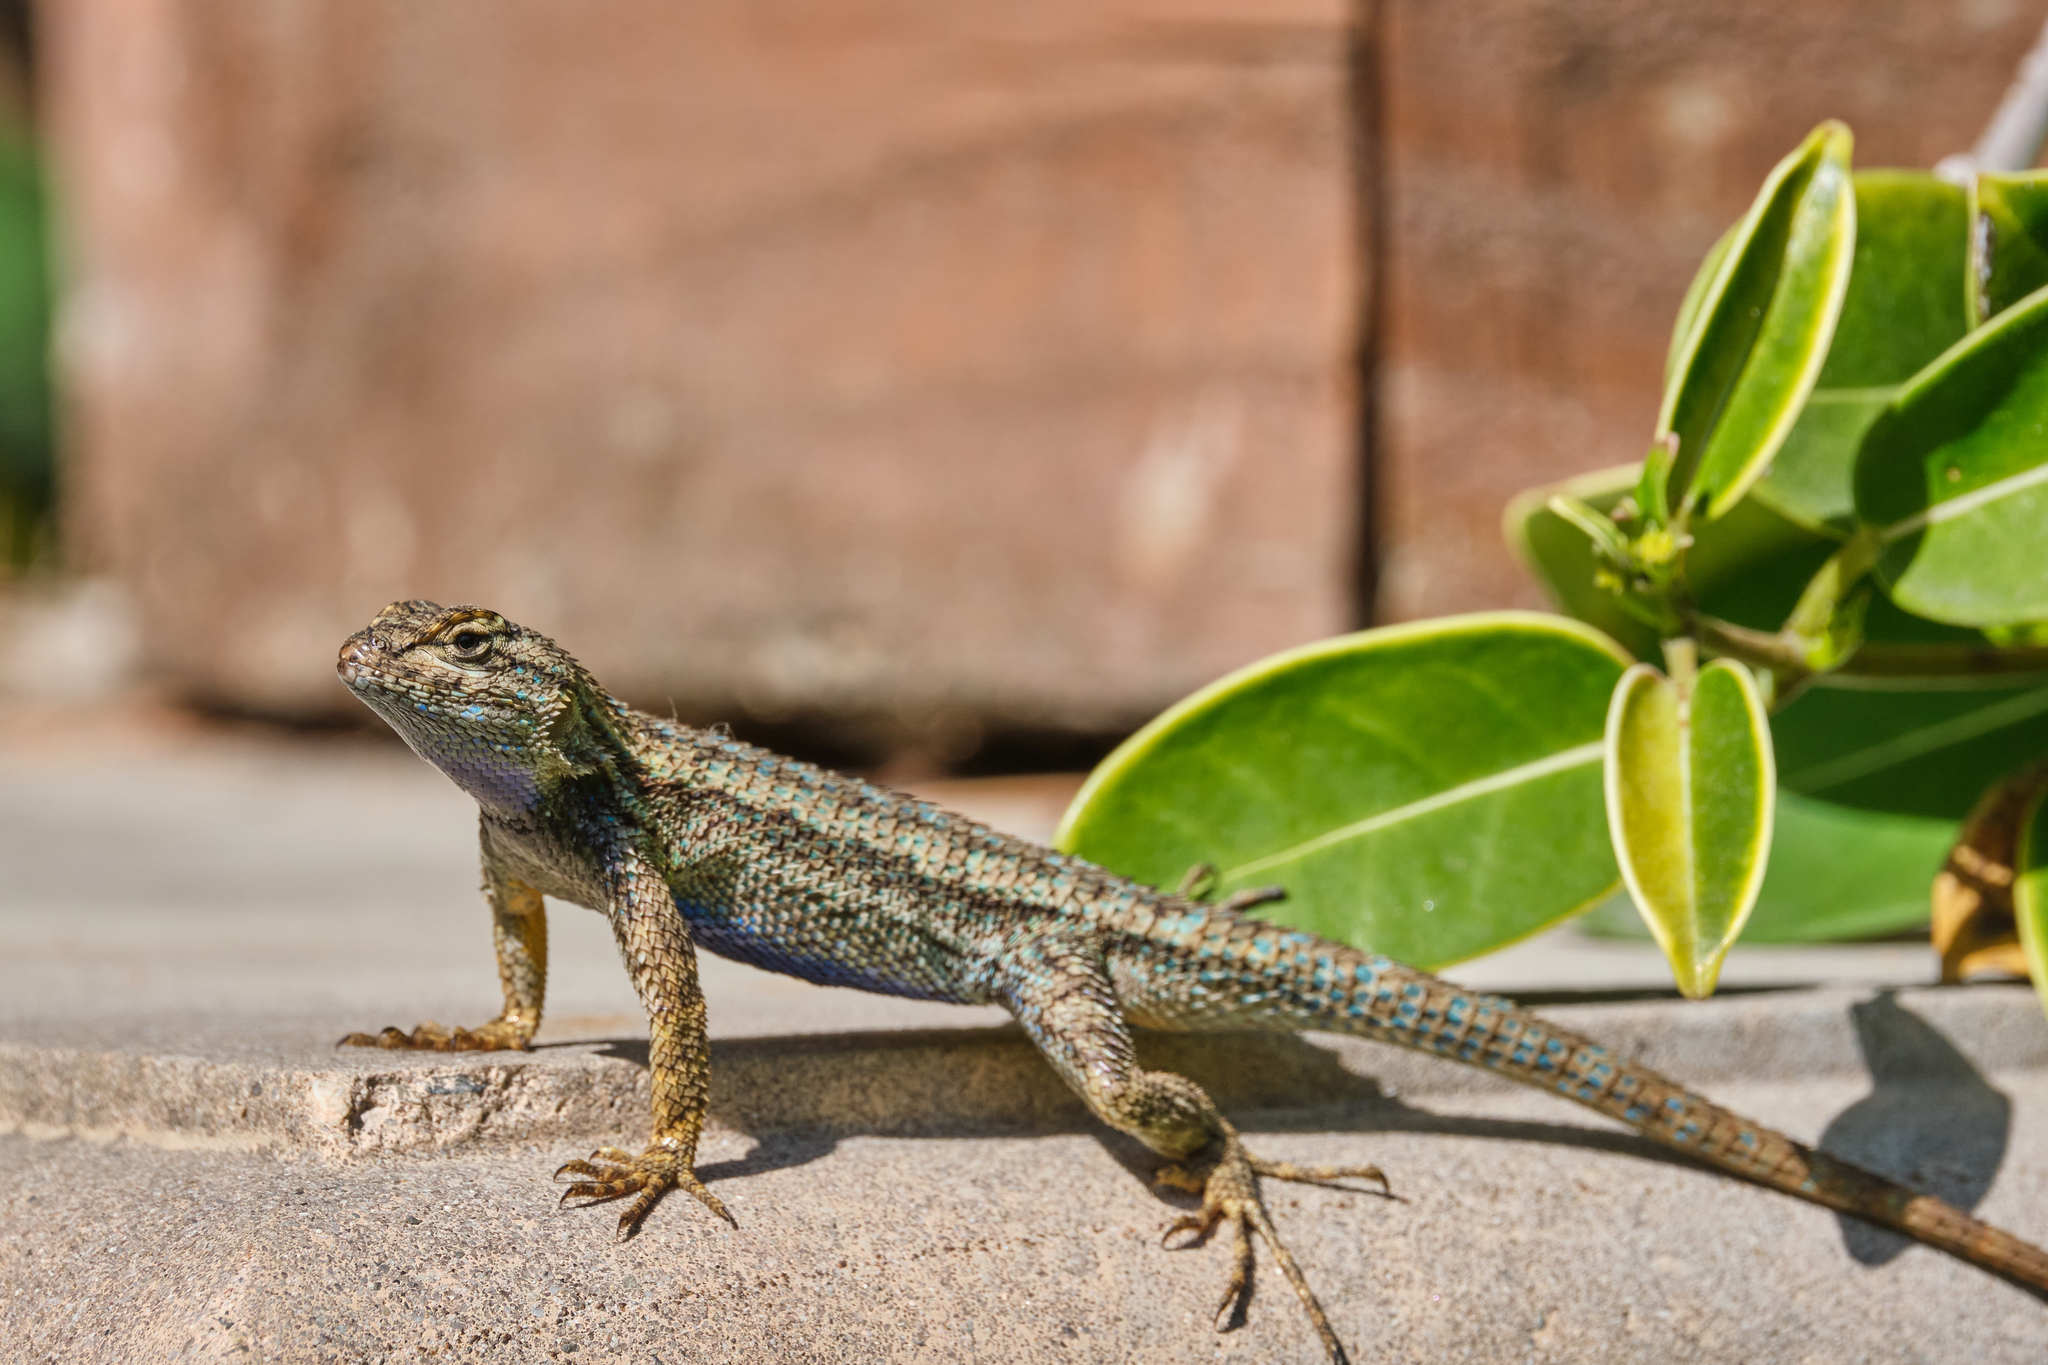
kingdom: Animalia
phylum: Chordata
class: Squamata
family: Phrynosomatidae
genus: Sceloporus
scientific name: Sceloporus occidentalis
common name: Western fence lizard
